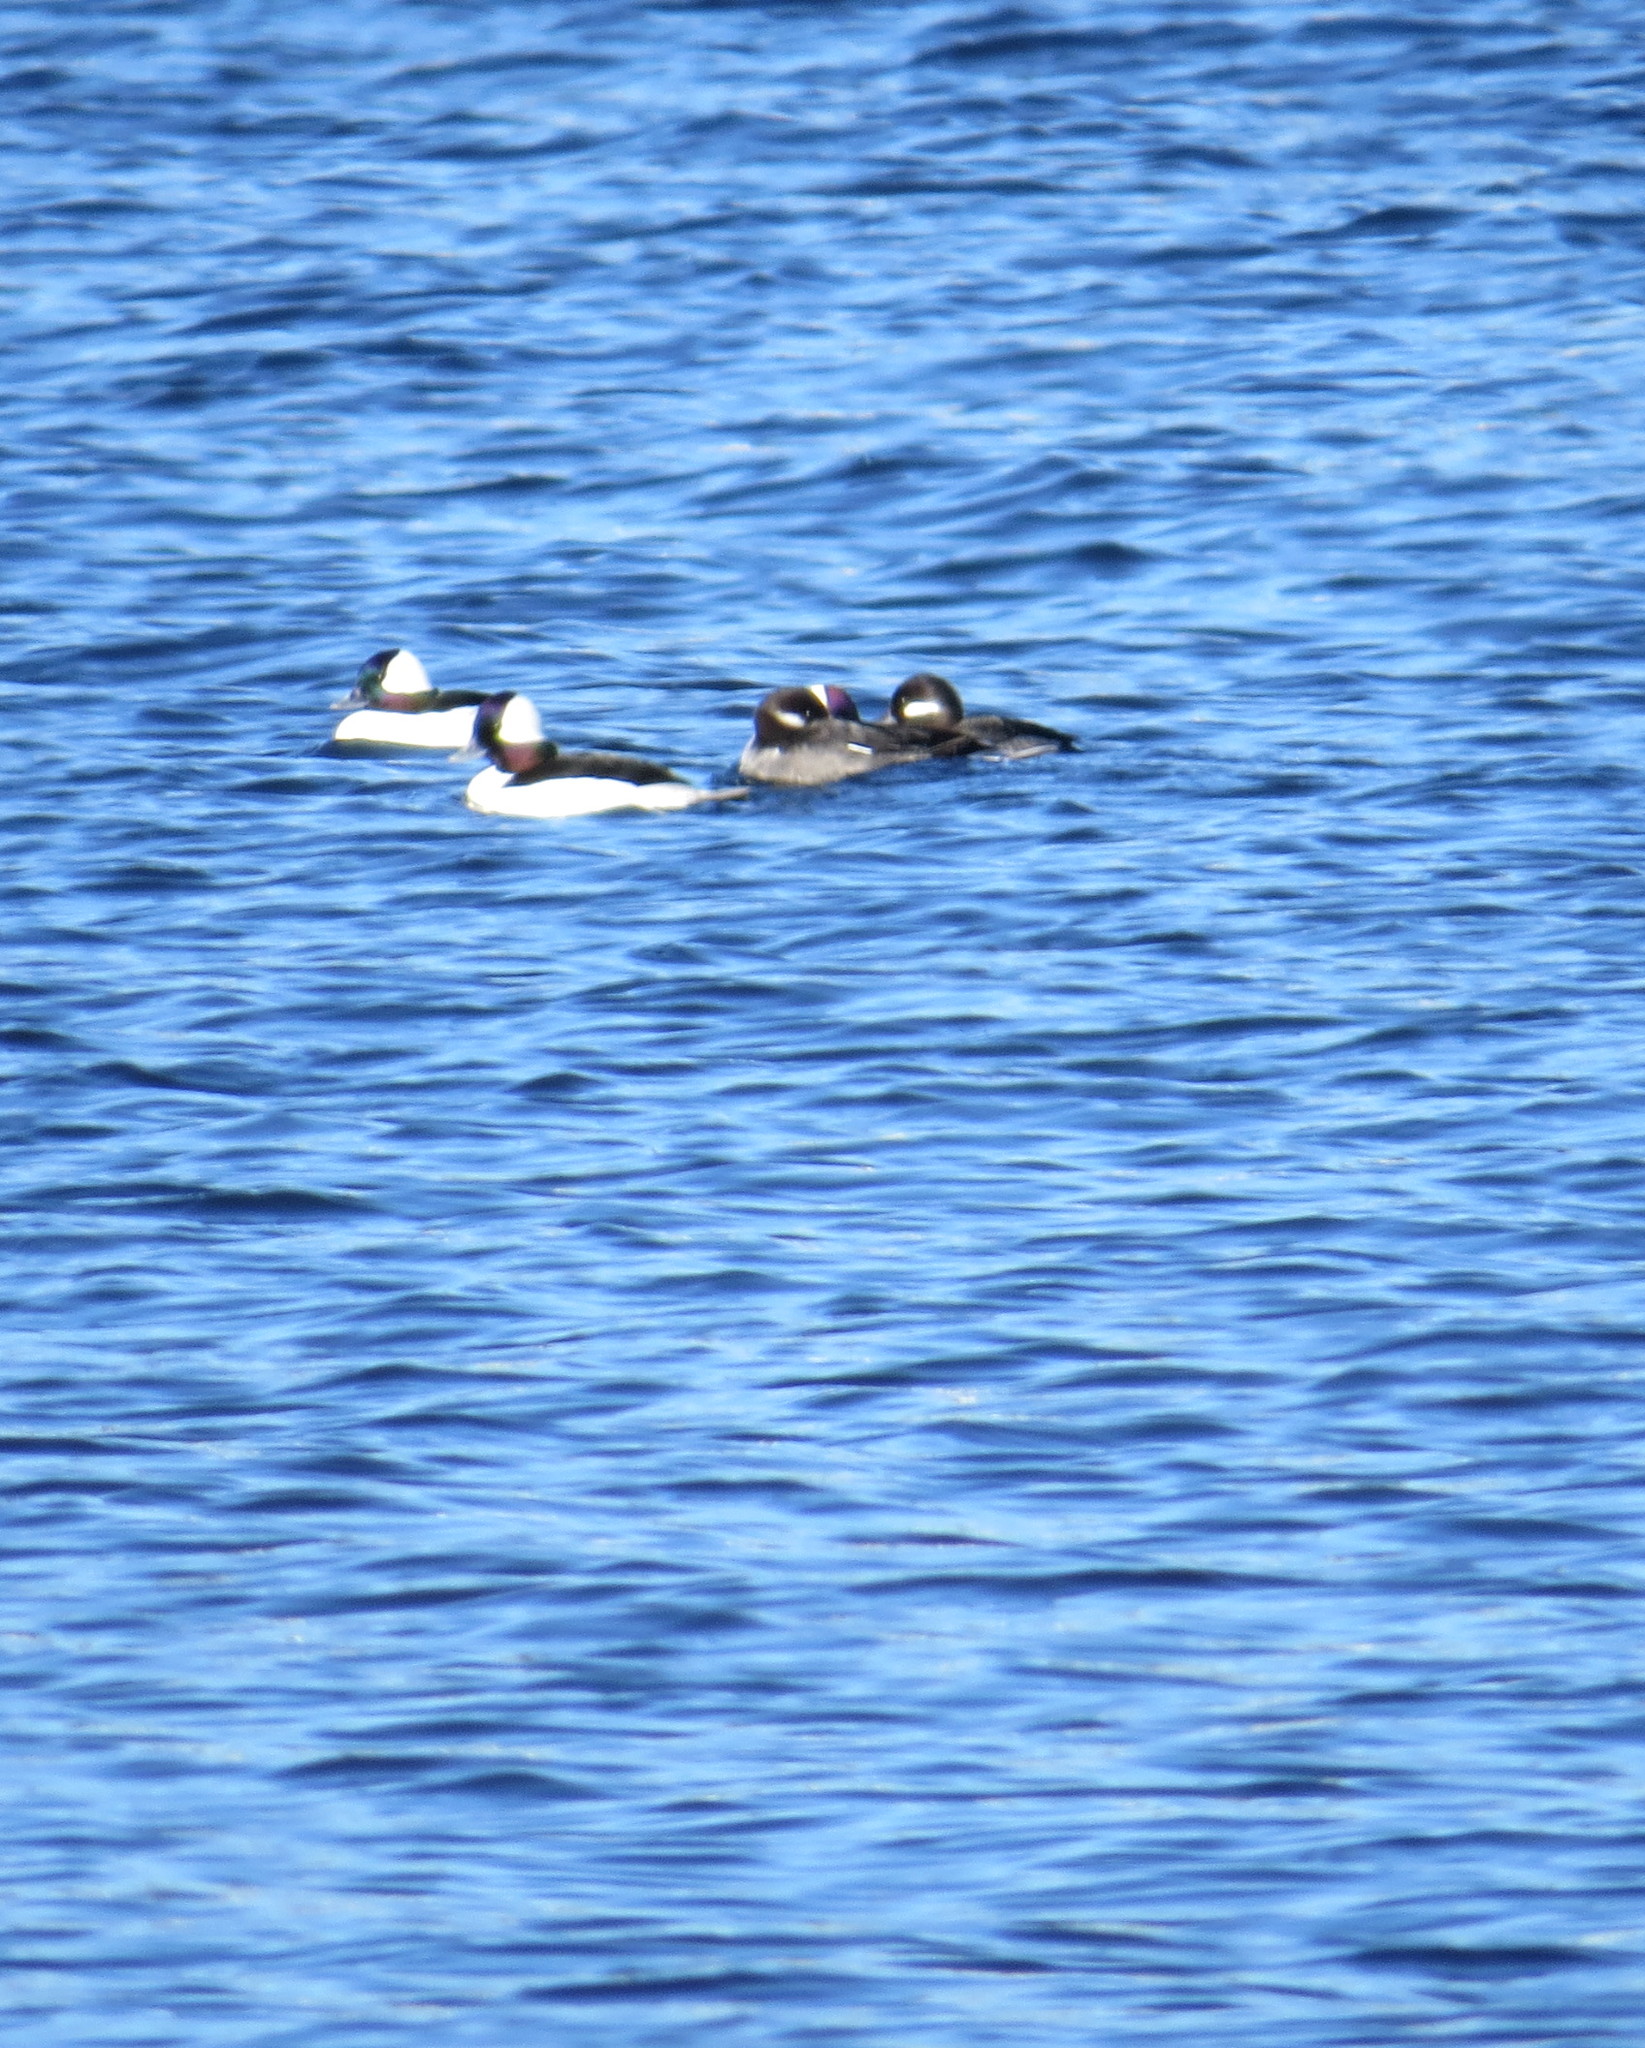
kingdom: Animalia
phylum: Chordata
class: Aves
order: Anseriformes
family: Anatidae
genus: Bucephala
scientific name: Bucephala albeola
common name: Bufflehead
